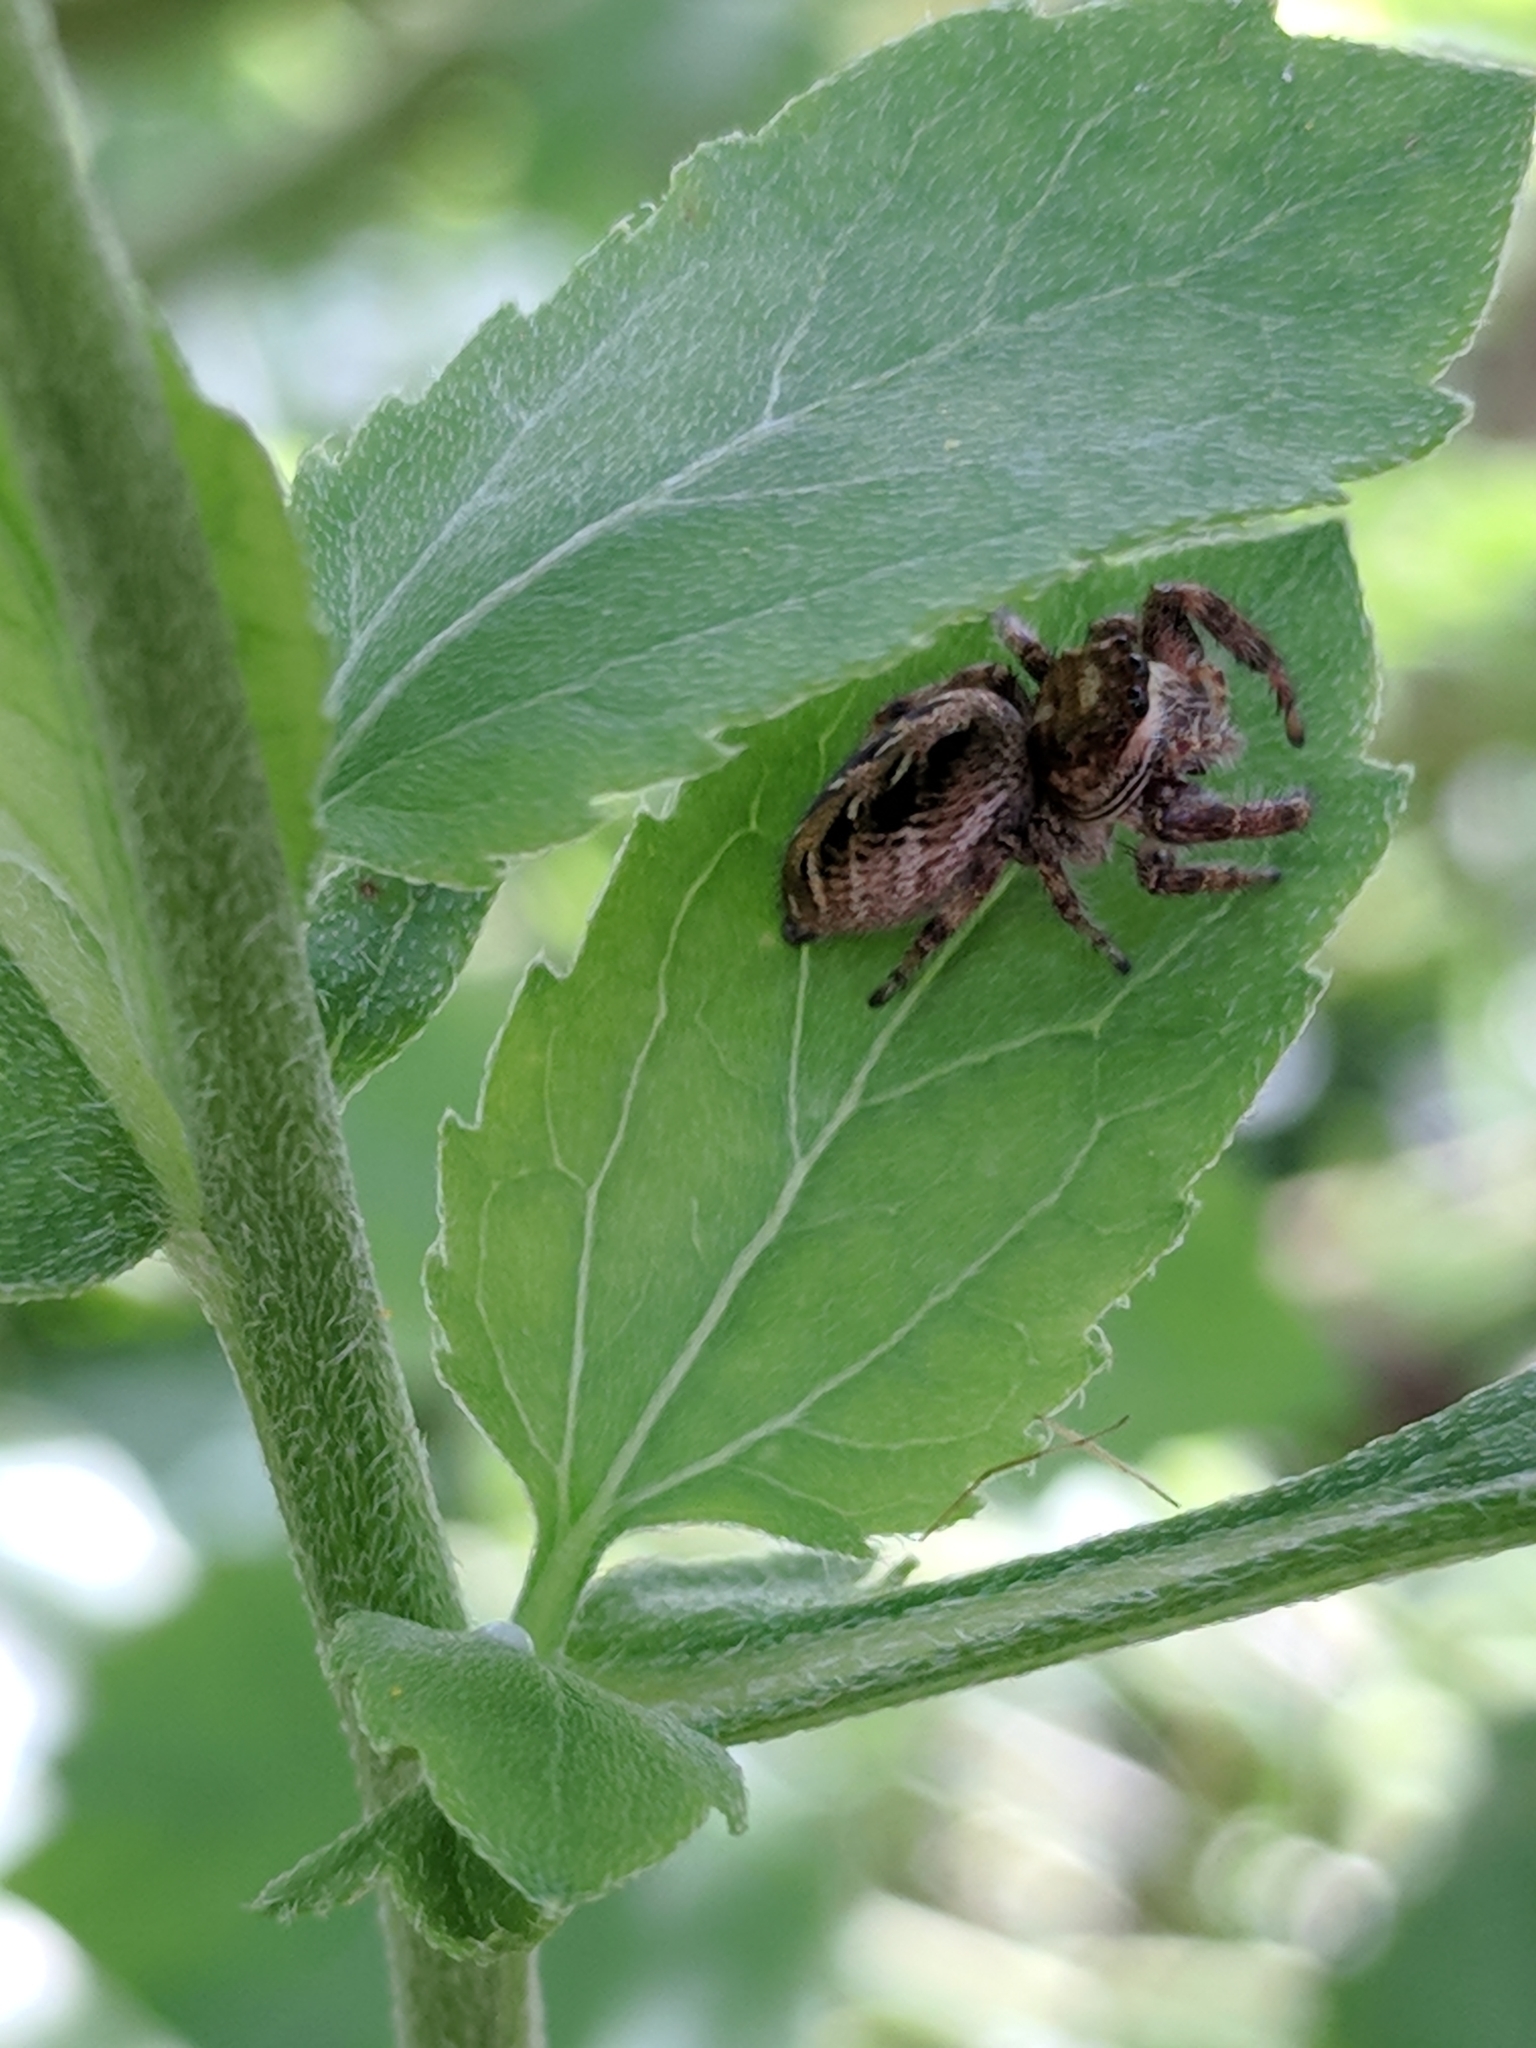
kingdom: Animalia
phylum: Arthropoda
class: Arachnida
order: Araneae
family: Salticidae
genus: Eris
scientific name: Eris militaris
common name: Bronze jumper
